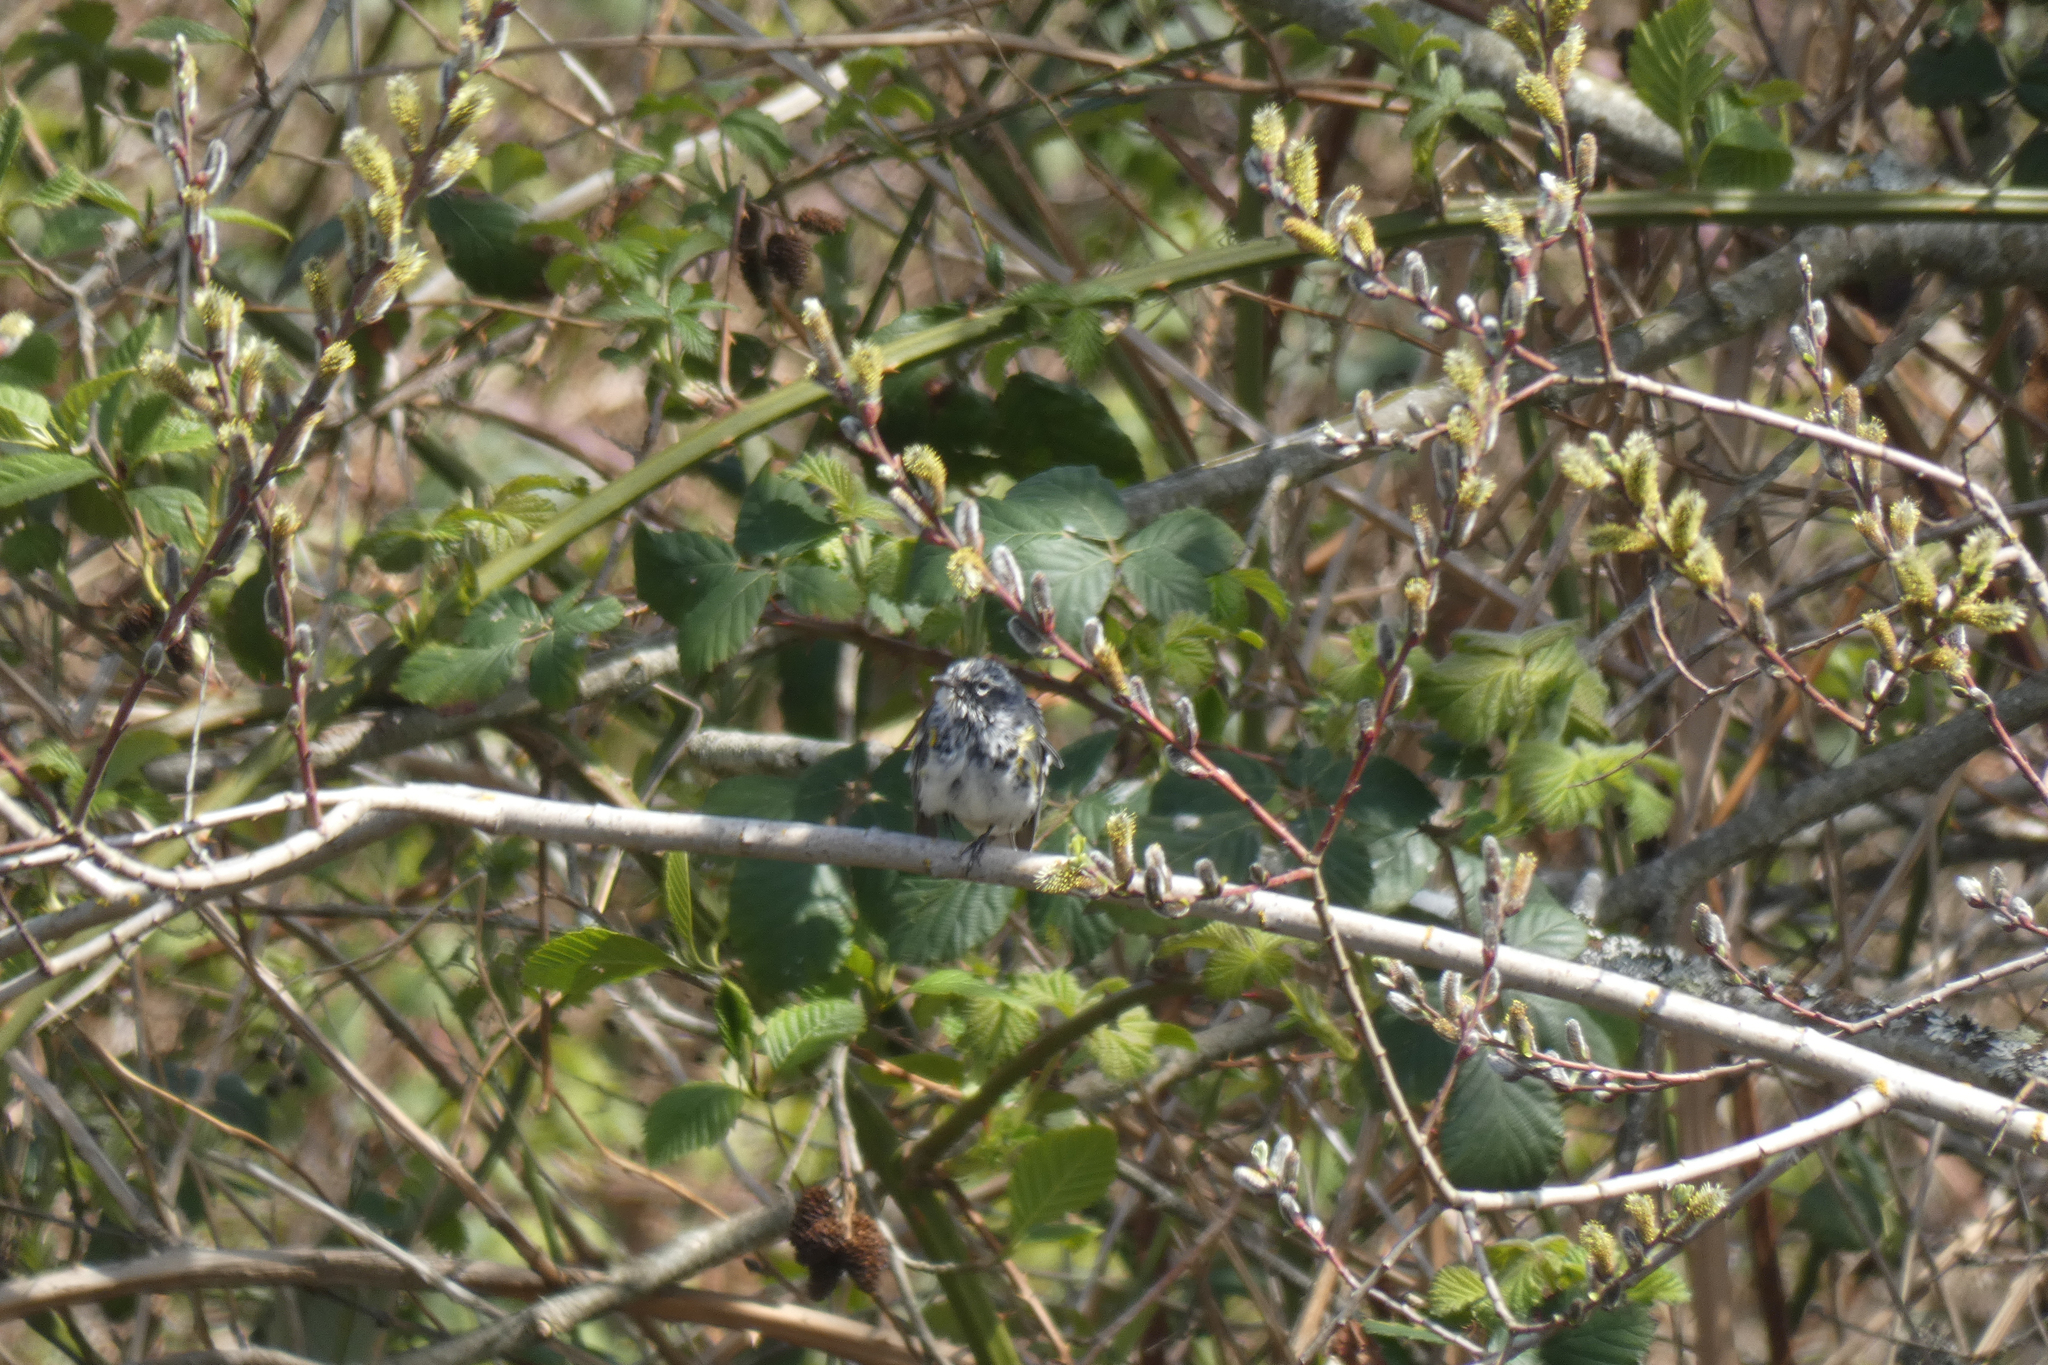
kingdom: Animalia
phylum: Chordata
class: Aves
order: Passeriformes
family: Parulidae
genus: Setophaga
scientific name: Setophaga coronata
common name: Myrtle warbler
